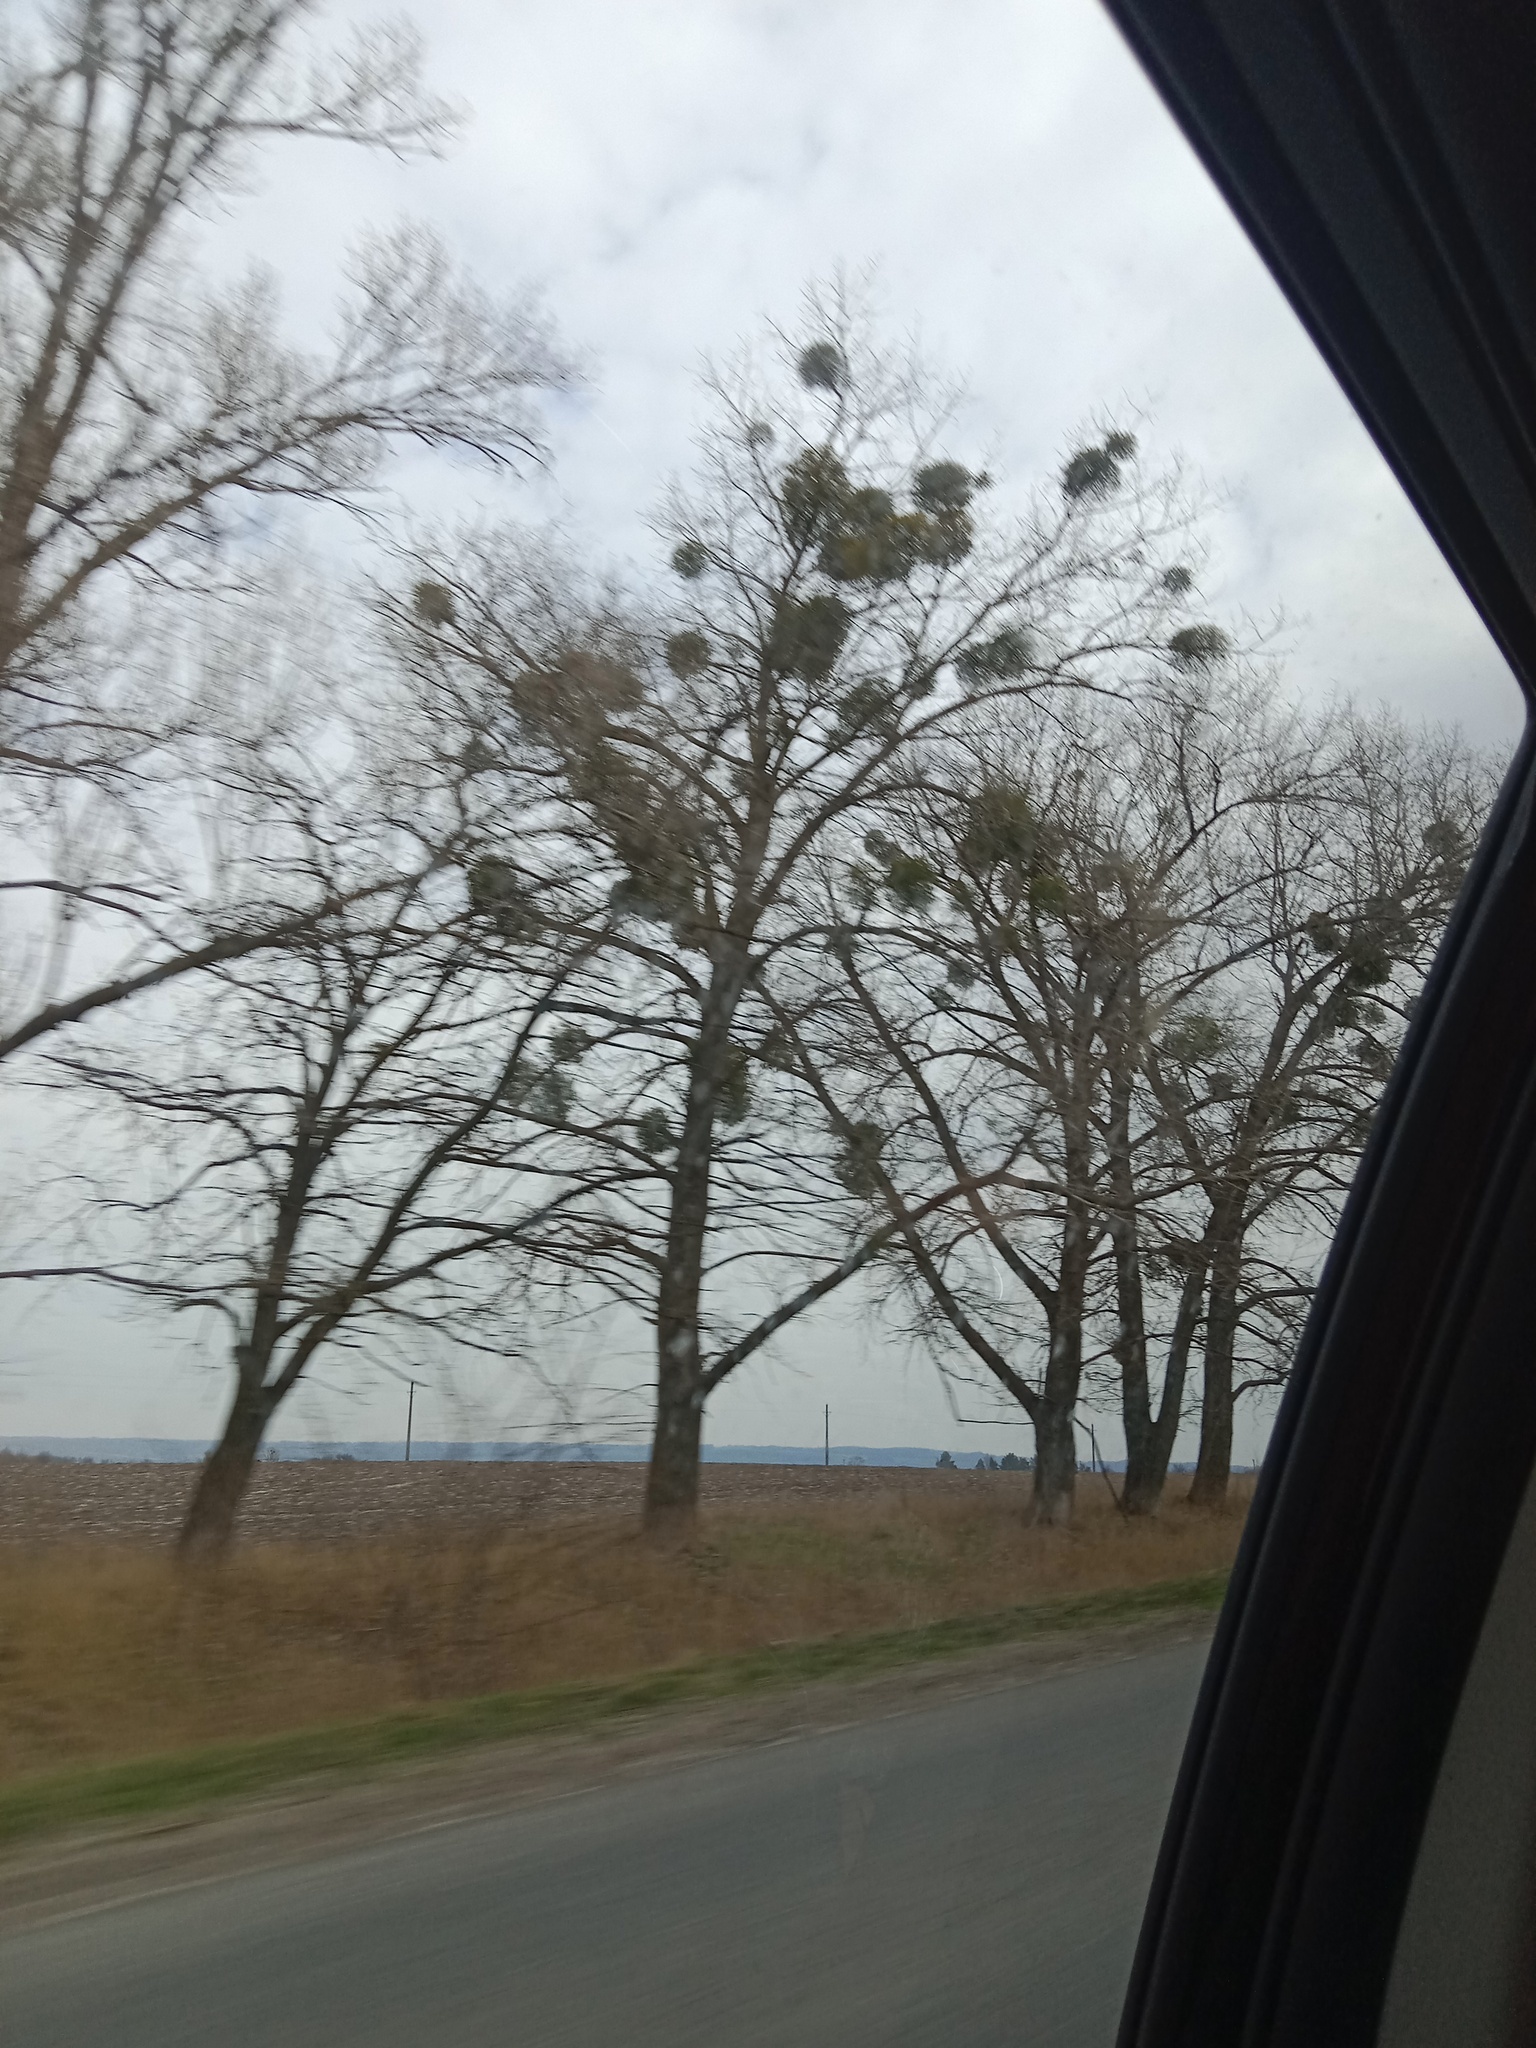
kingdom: Plantae
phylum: Tracheophyta
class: Magnoliopsida
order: Santalales
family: Viscaceae
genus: Viscum
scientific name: Viscum album
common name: Mistletoe
